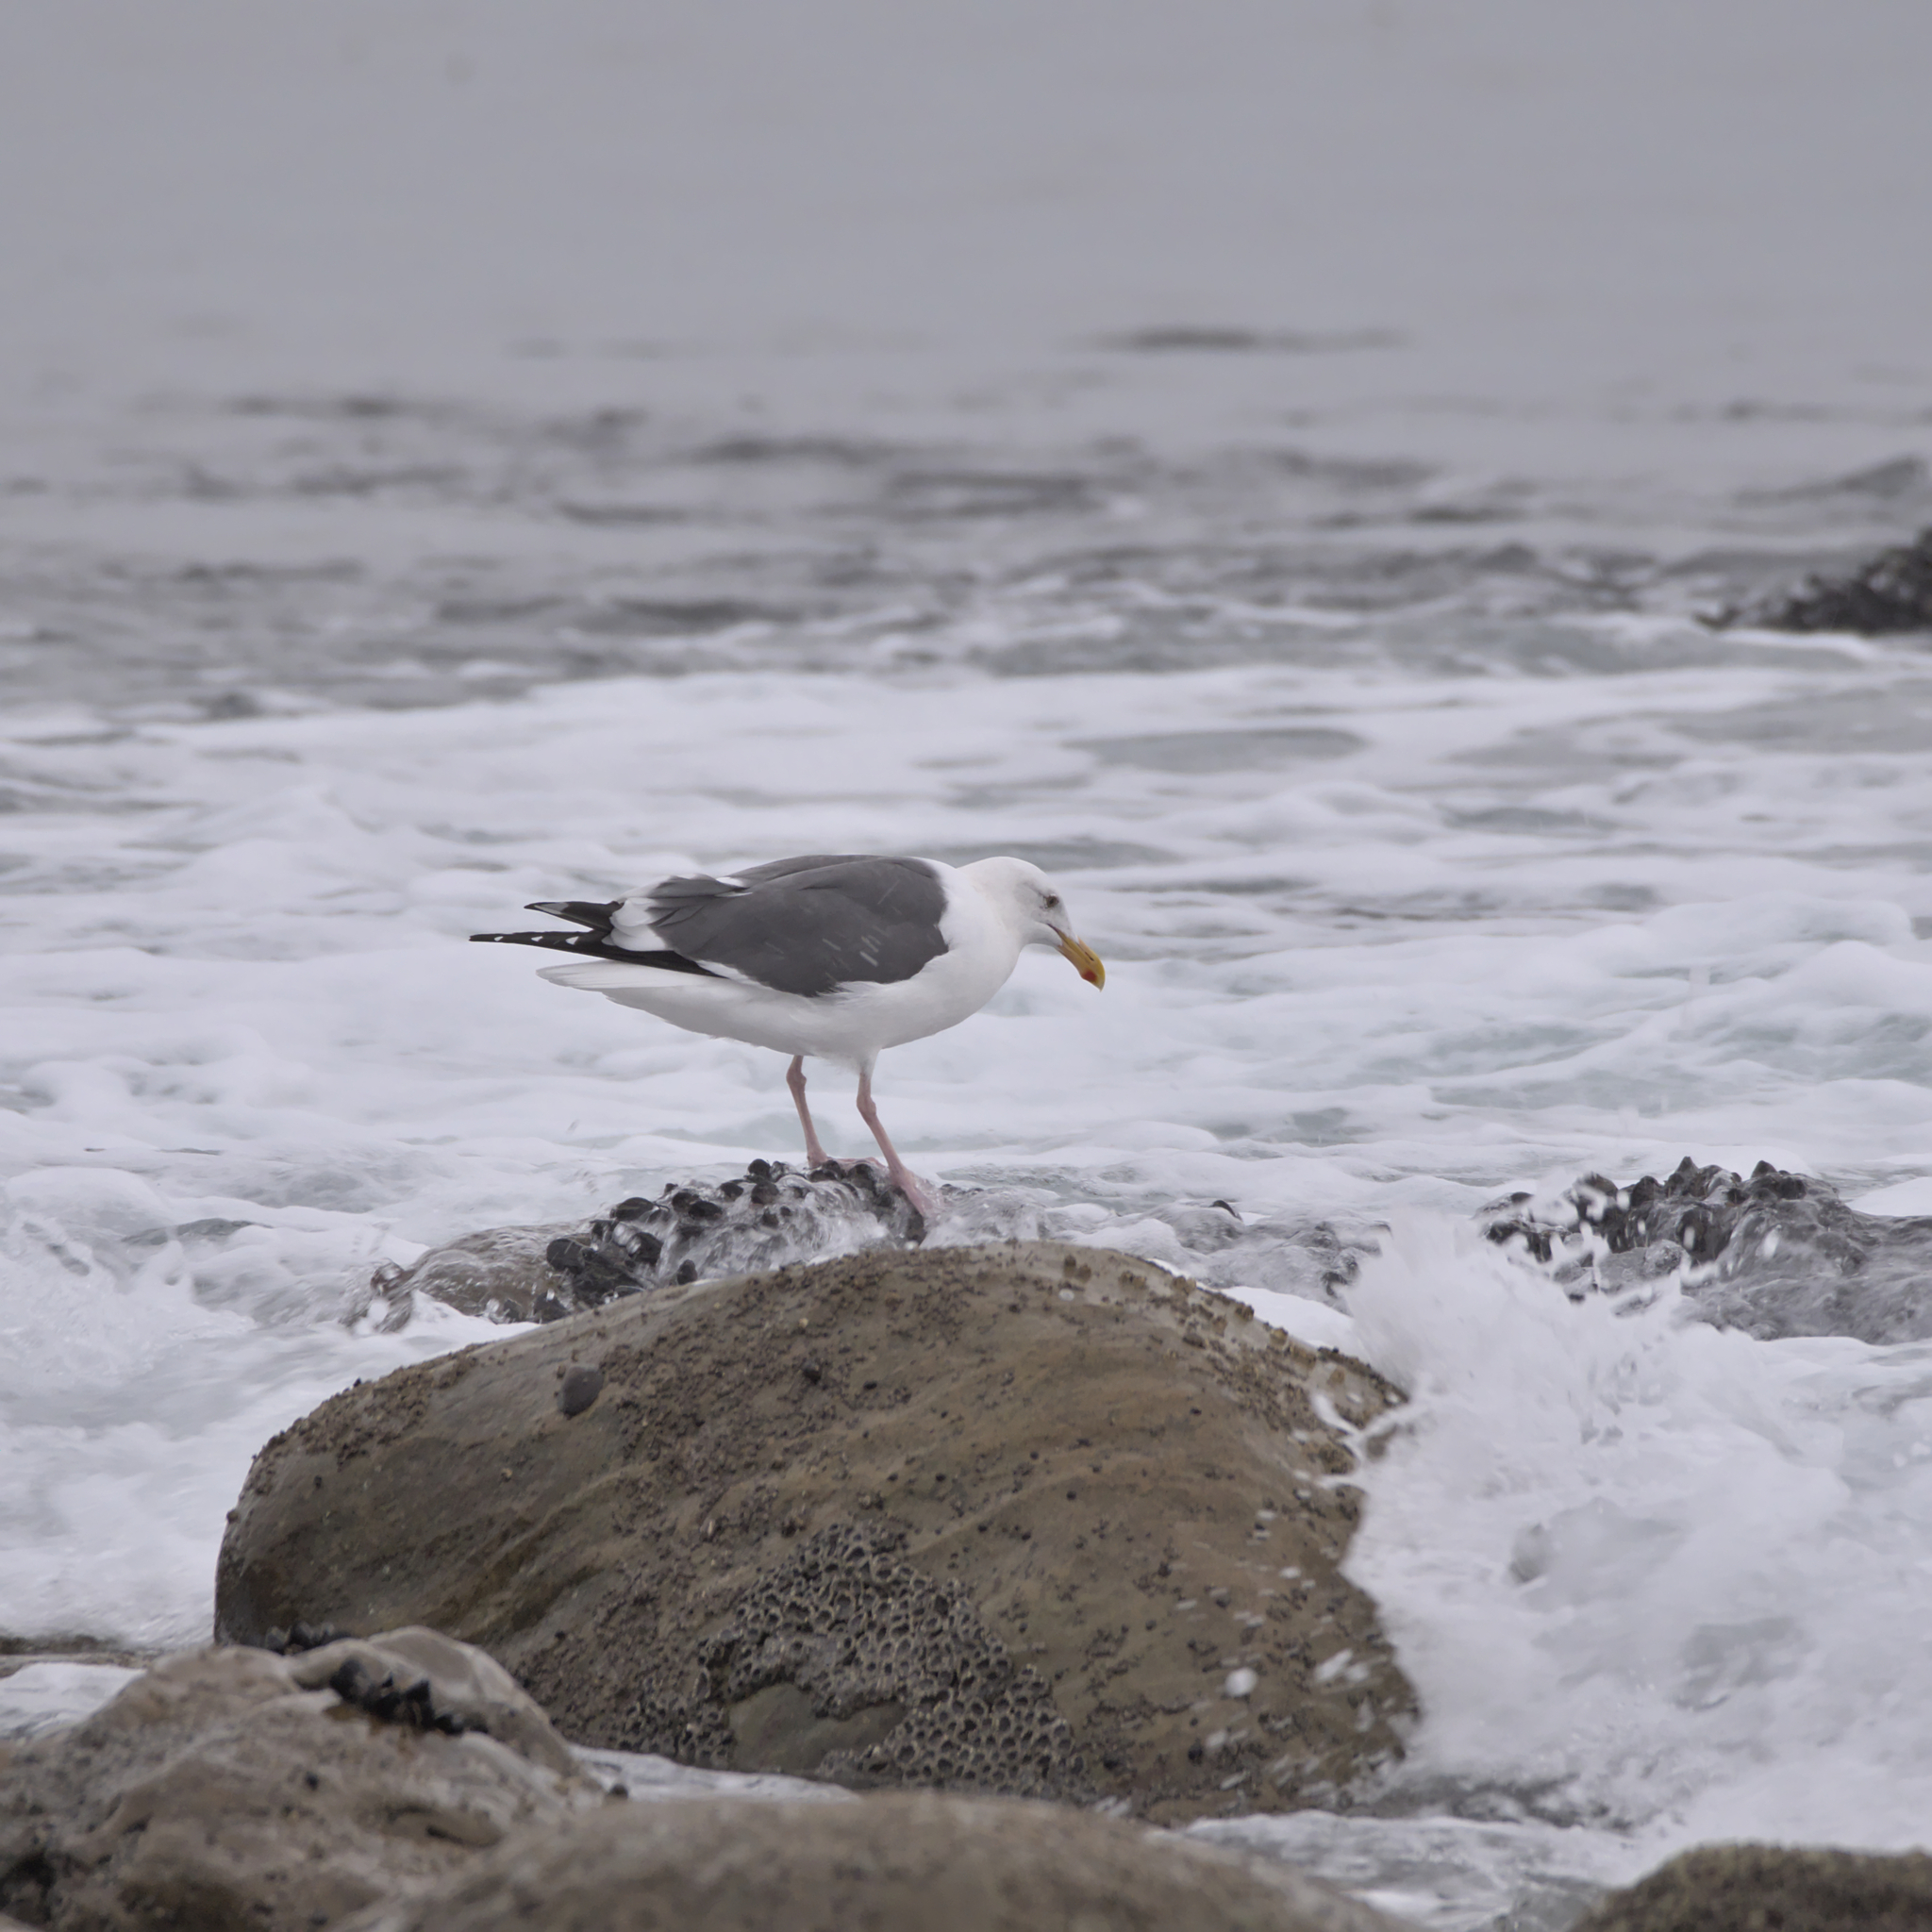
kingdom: Animalia
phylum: Chordata
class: Aves
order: Charadriiformes
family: Laridae
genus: Larus
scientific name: Larus occidentalis
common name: Western gull
